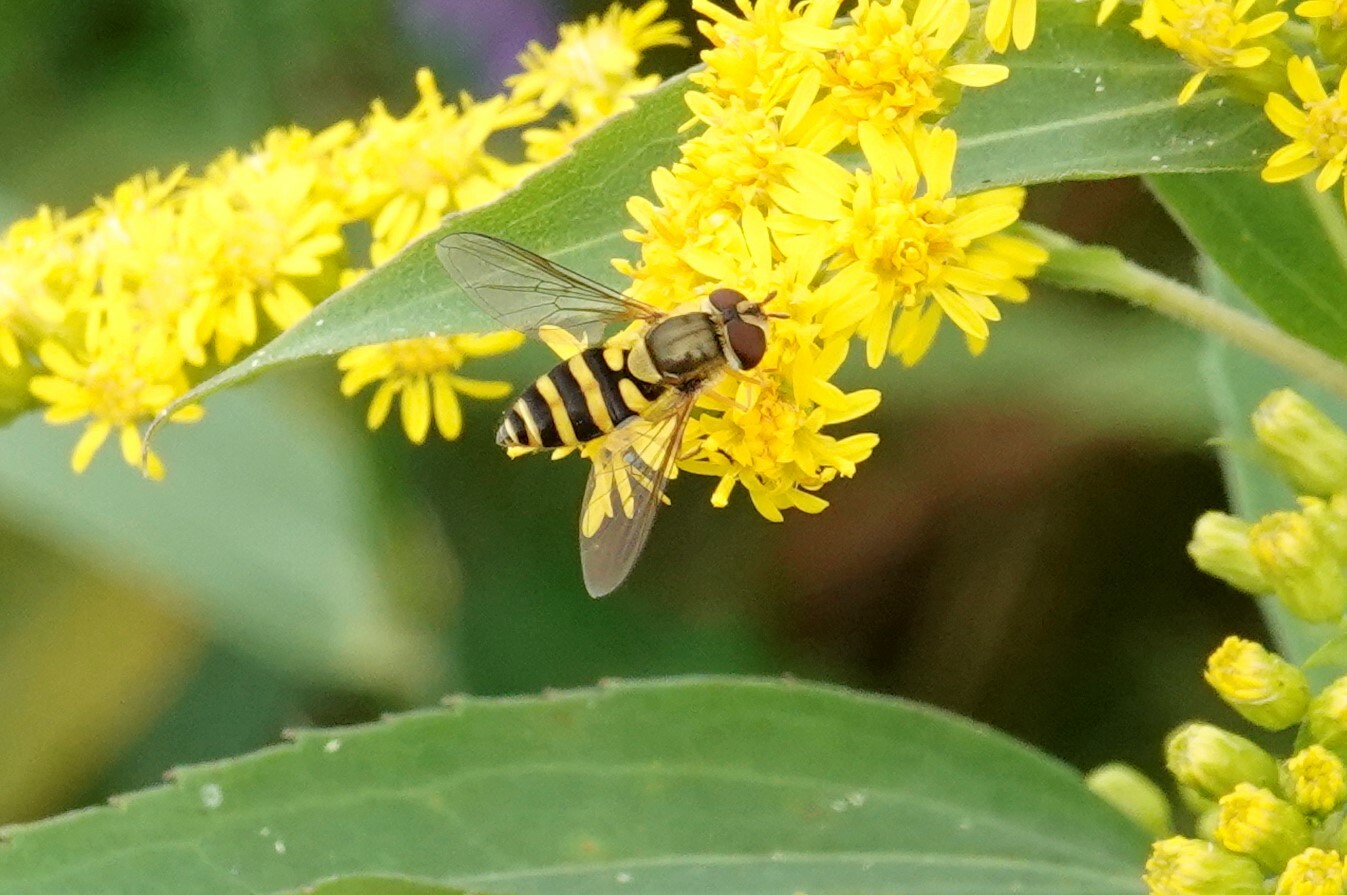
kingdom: Animalia
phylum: Arthropoda
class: Insecta
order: Diptera
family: Syrphidae
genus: Syrphus
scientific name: Syrphus rectus
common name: Yellow-legged flower fly
